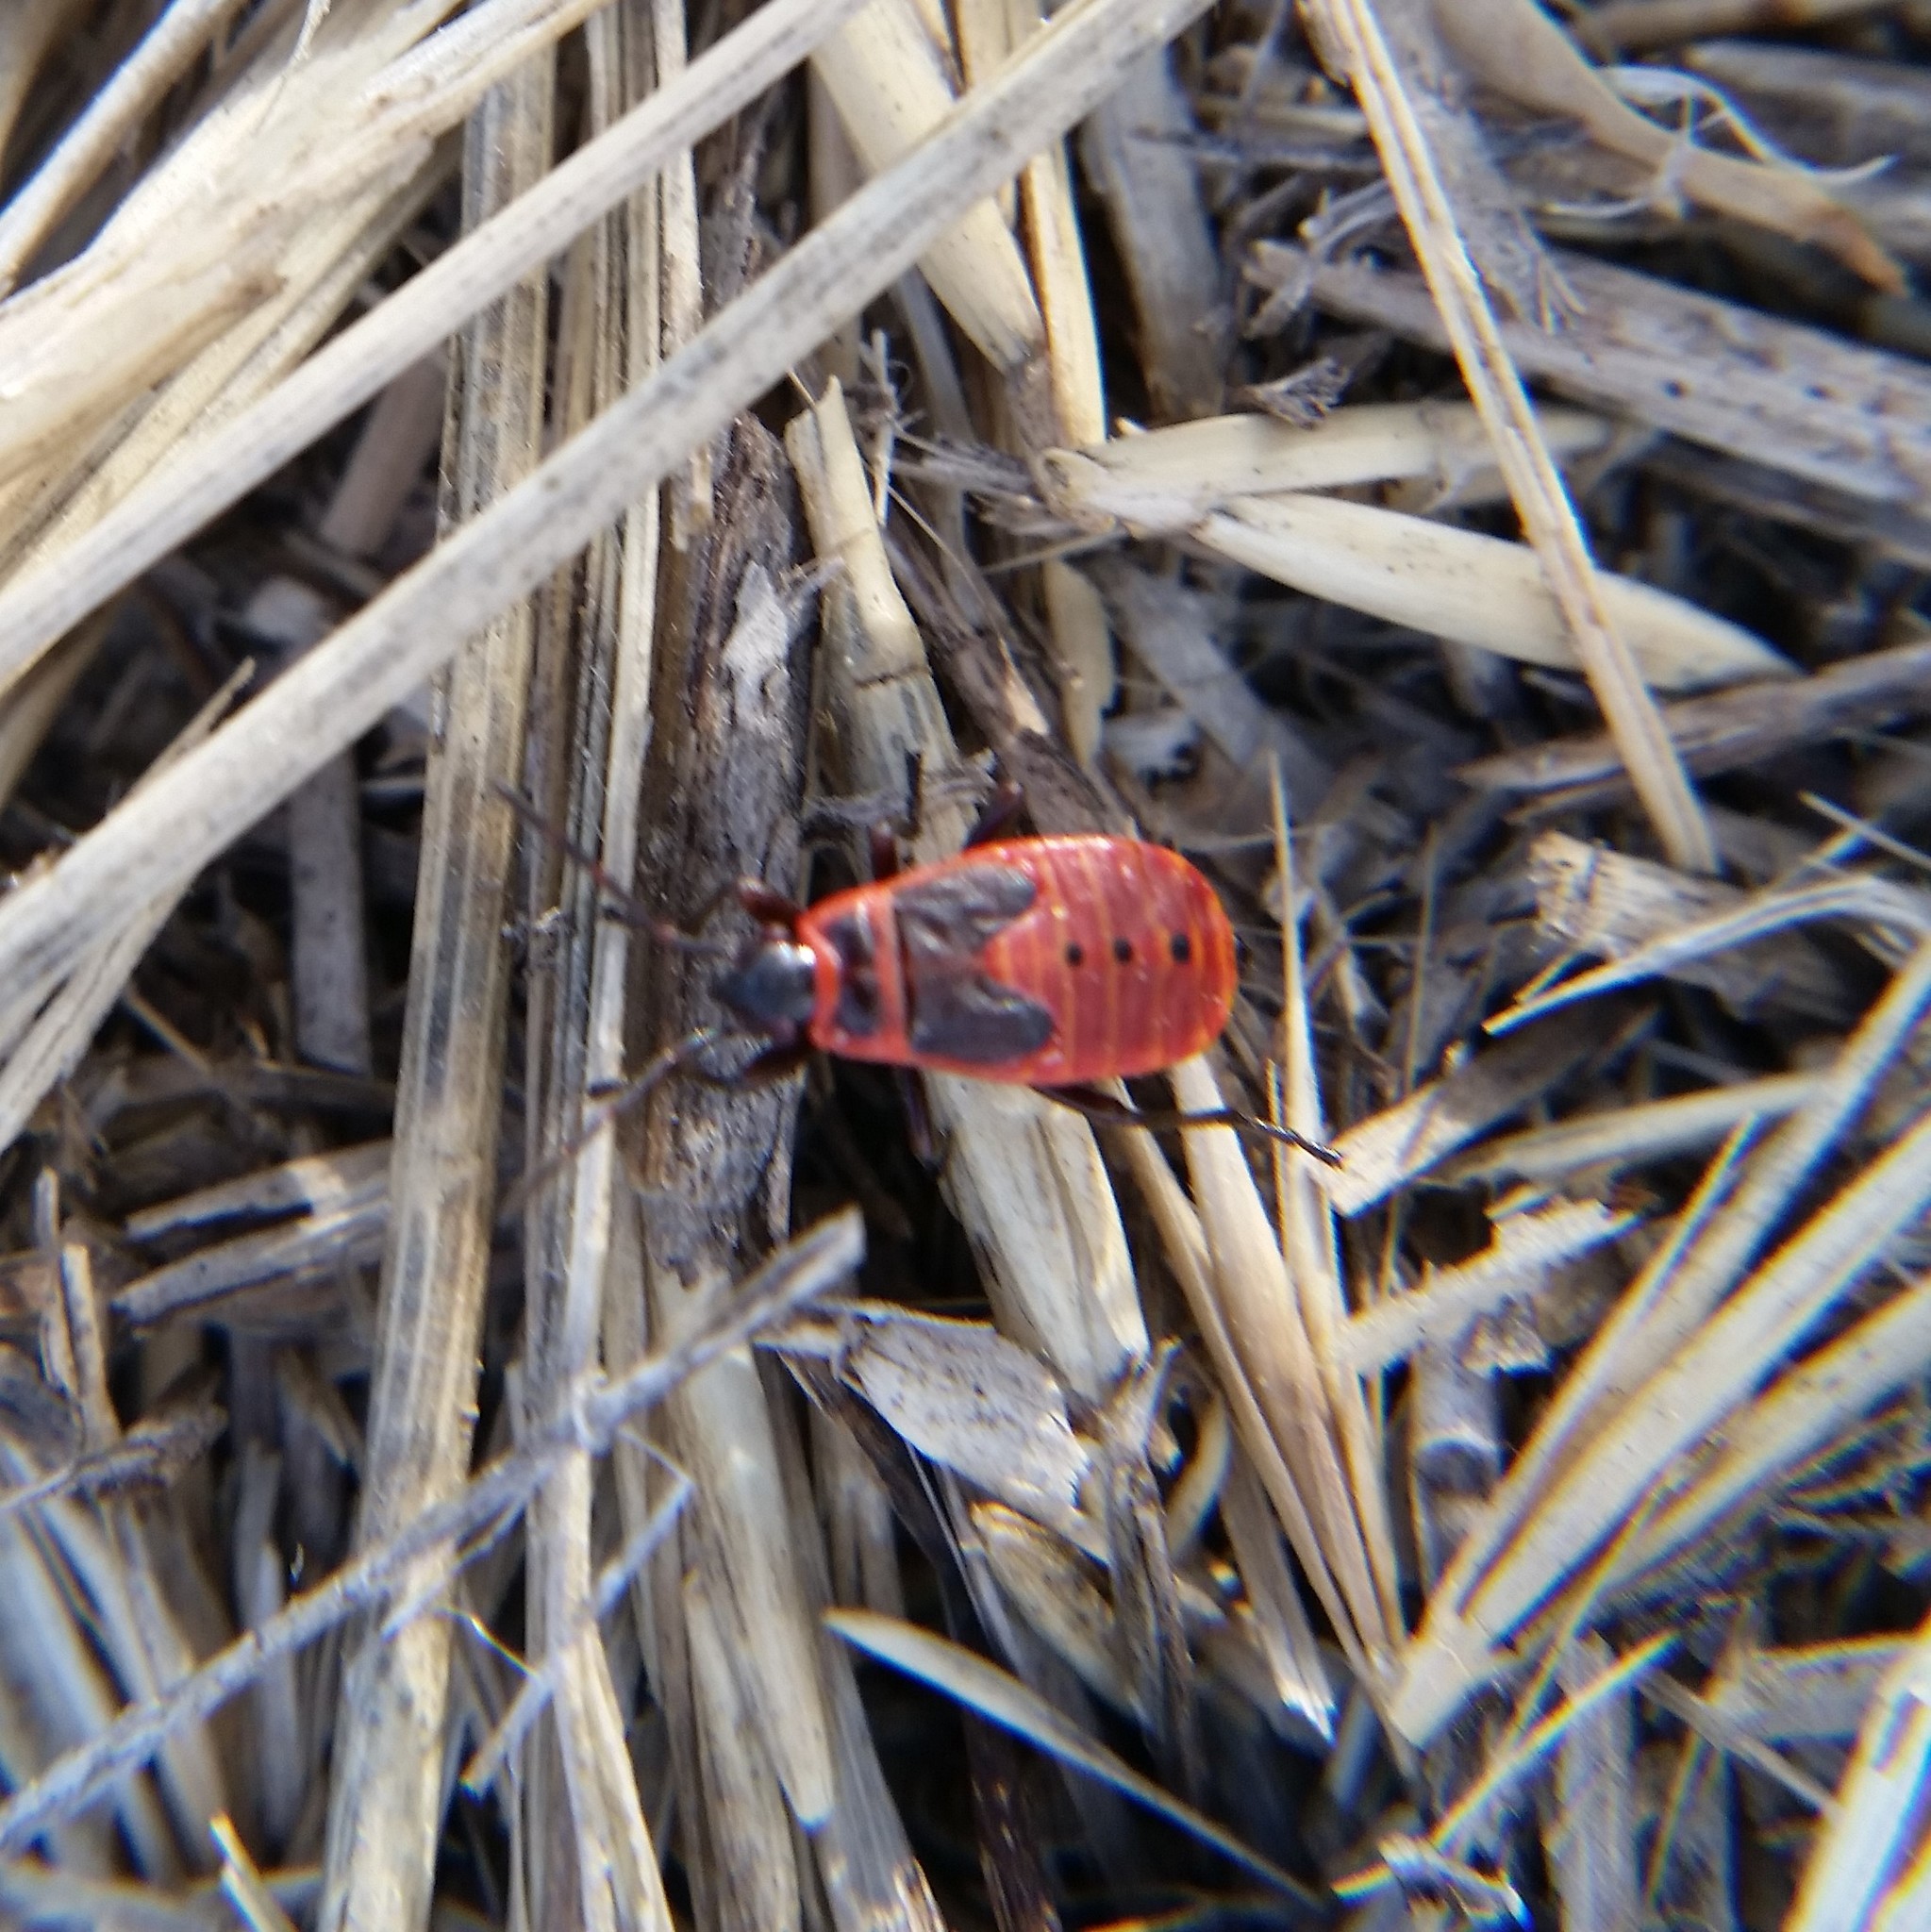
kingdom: Animalia
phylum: Arthropoda
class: Insecta
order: Hemiptera
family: Pyrrhocoridae
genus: Pyrrhocoris
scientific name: Pyrrhocoris apterus
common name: Firebug
